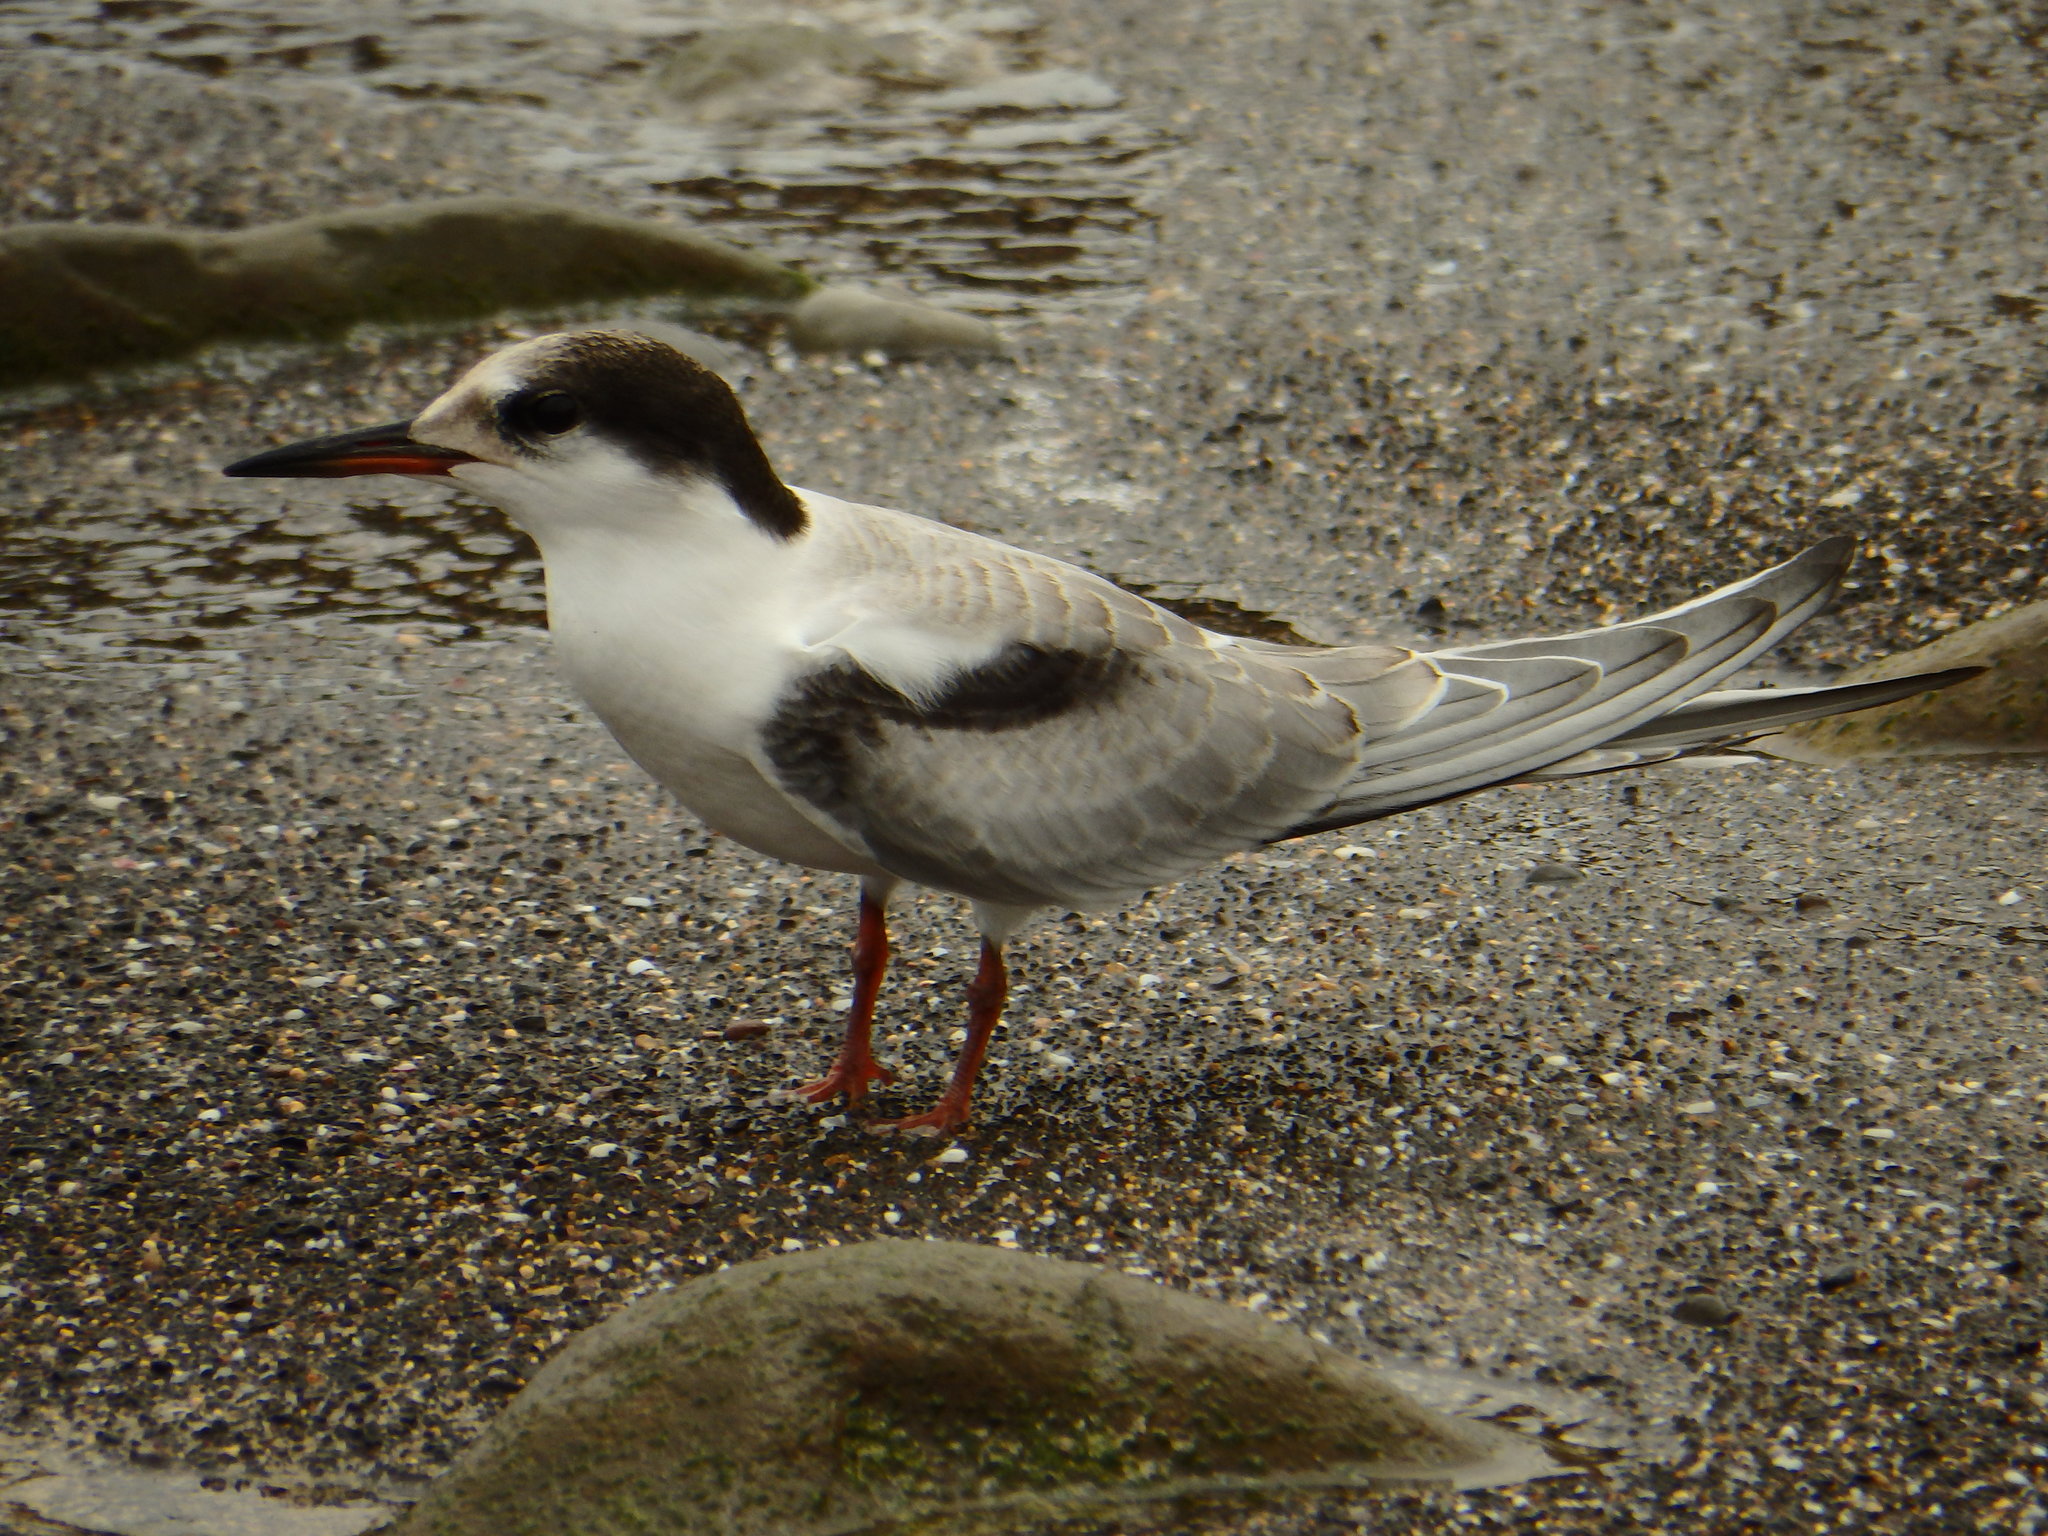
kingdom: Animalia
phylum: Chordata
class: Aves
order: Charadriiformes
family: Laridae
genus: Sterna
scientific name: Sterna hirundo
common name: Common tern
